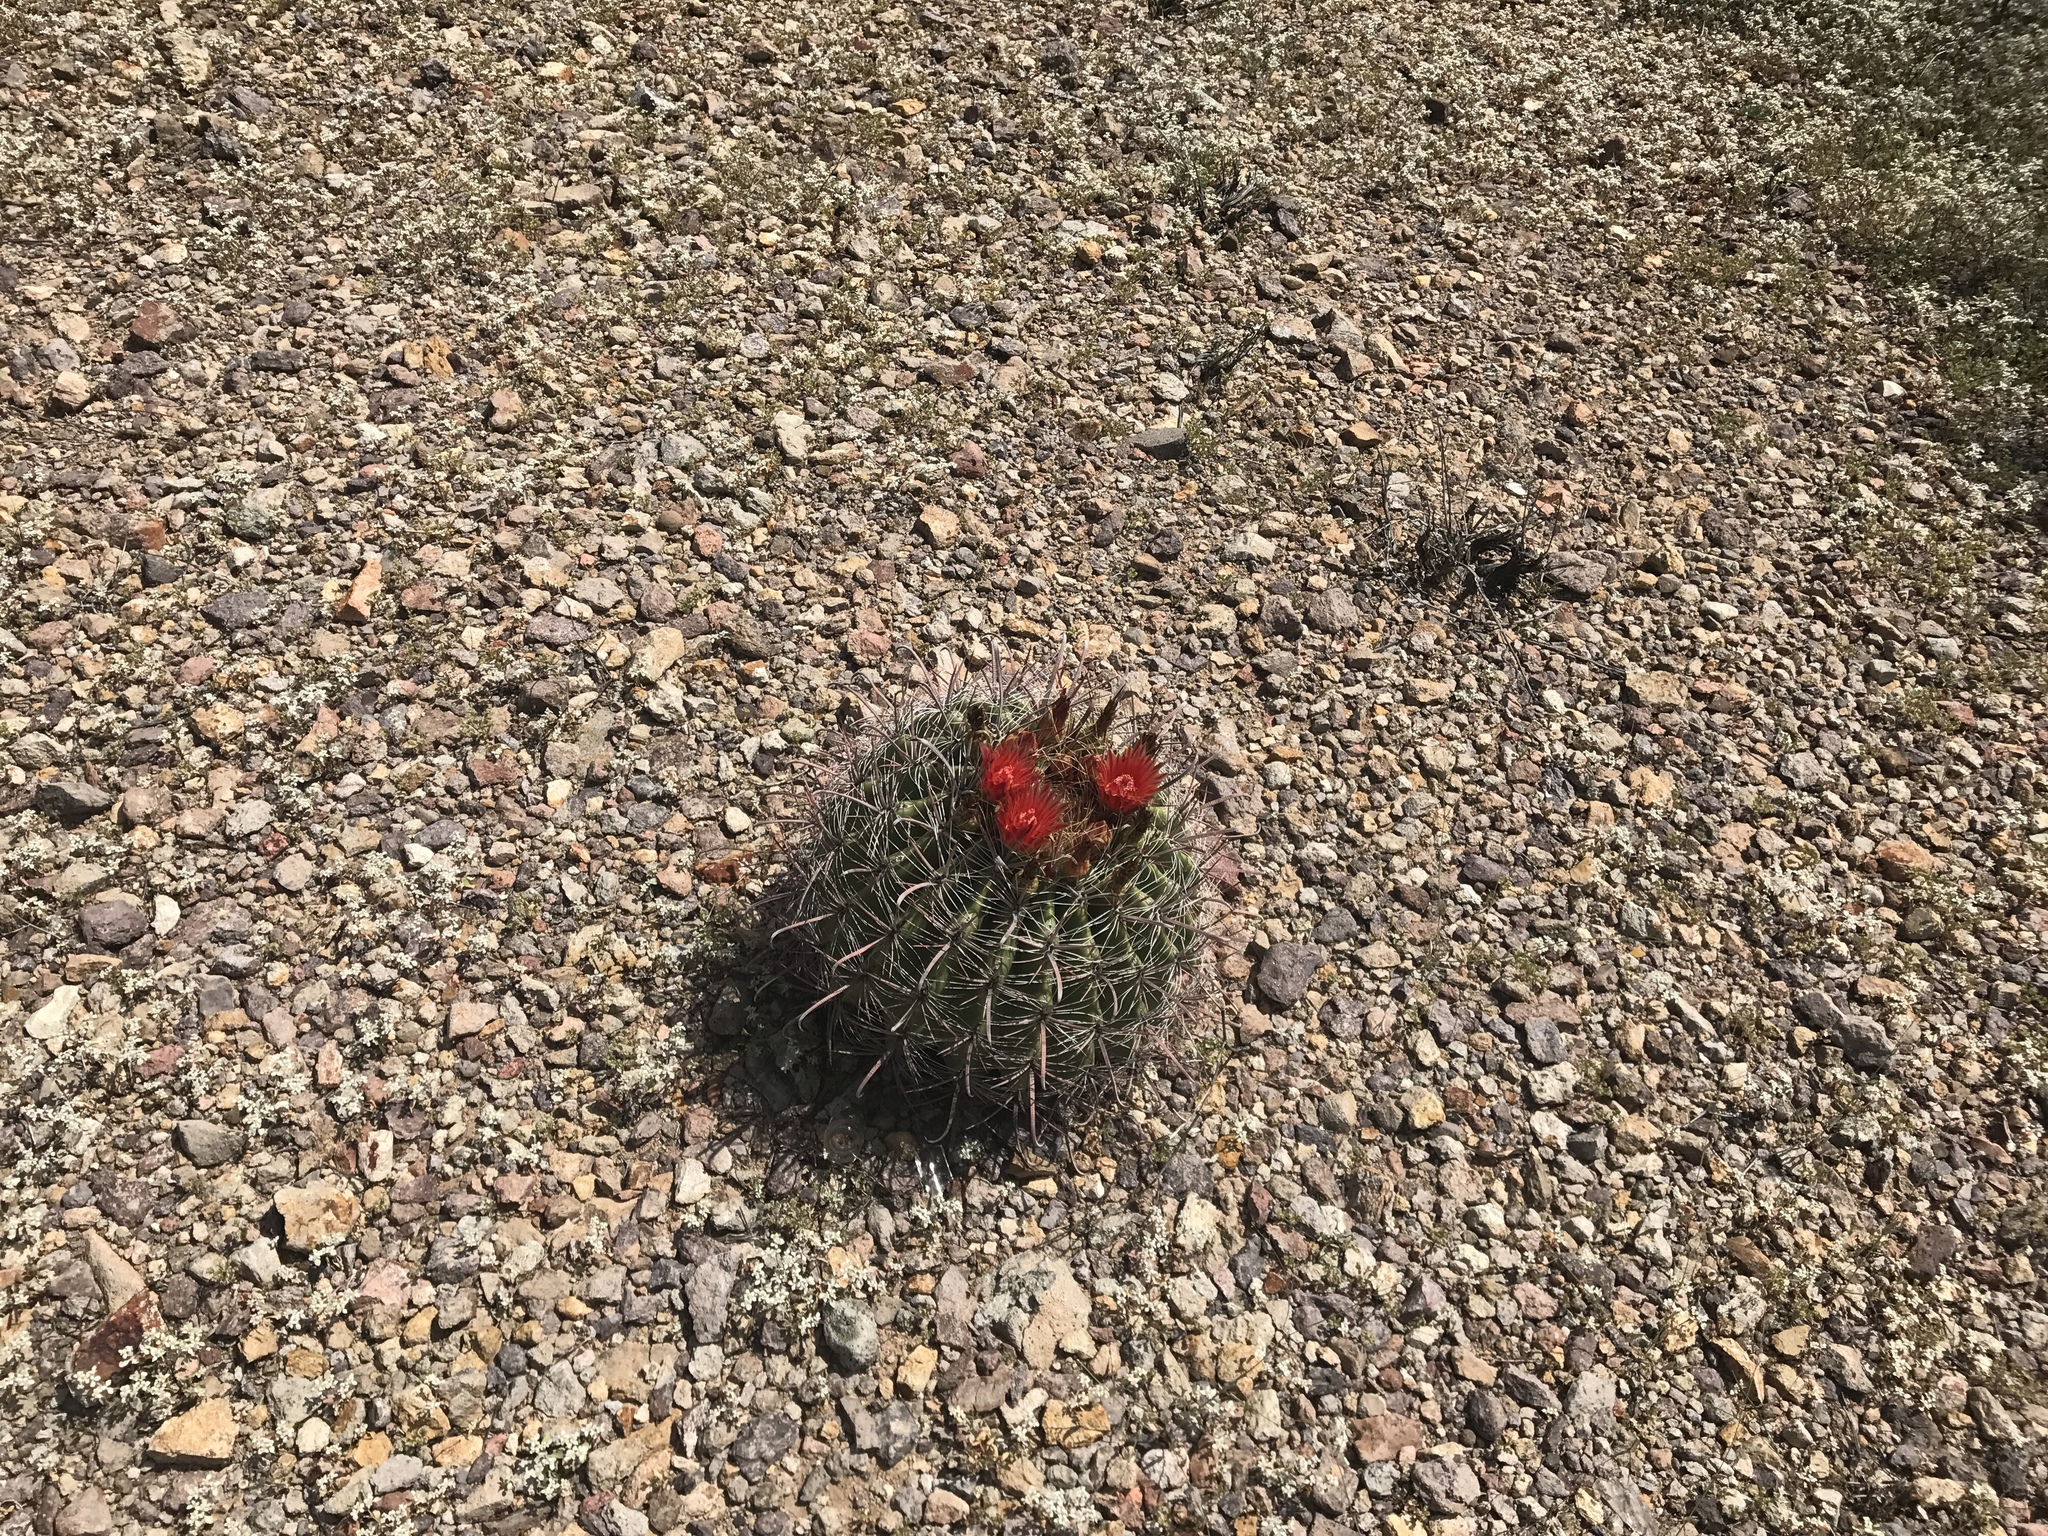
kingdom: Plantae
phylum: Tracheophyta
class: Magnoliopsida
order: Caryophyllales
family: Cactaceae
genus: Ferocactus
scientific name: Ferocactus wislizeni
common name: Candy barrel cactus
